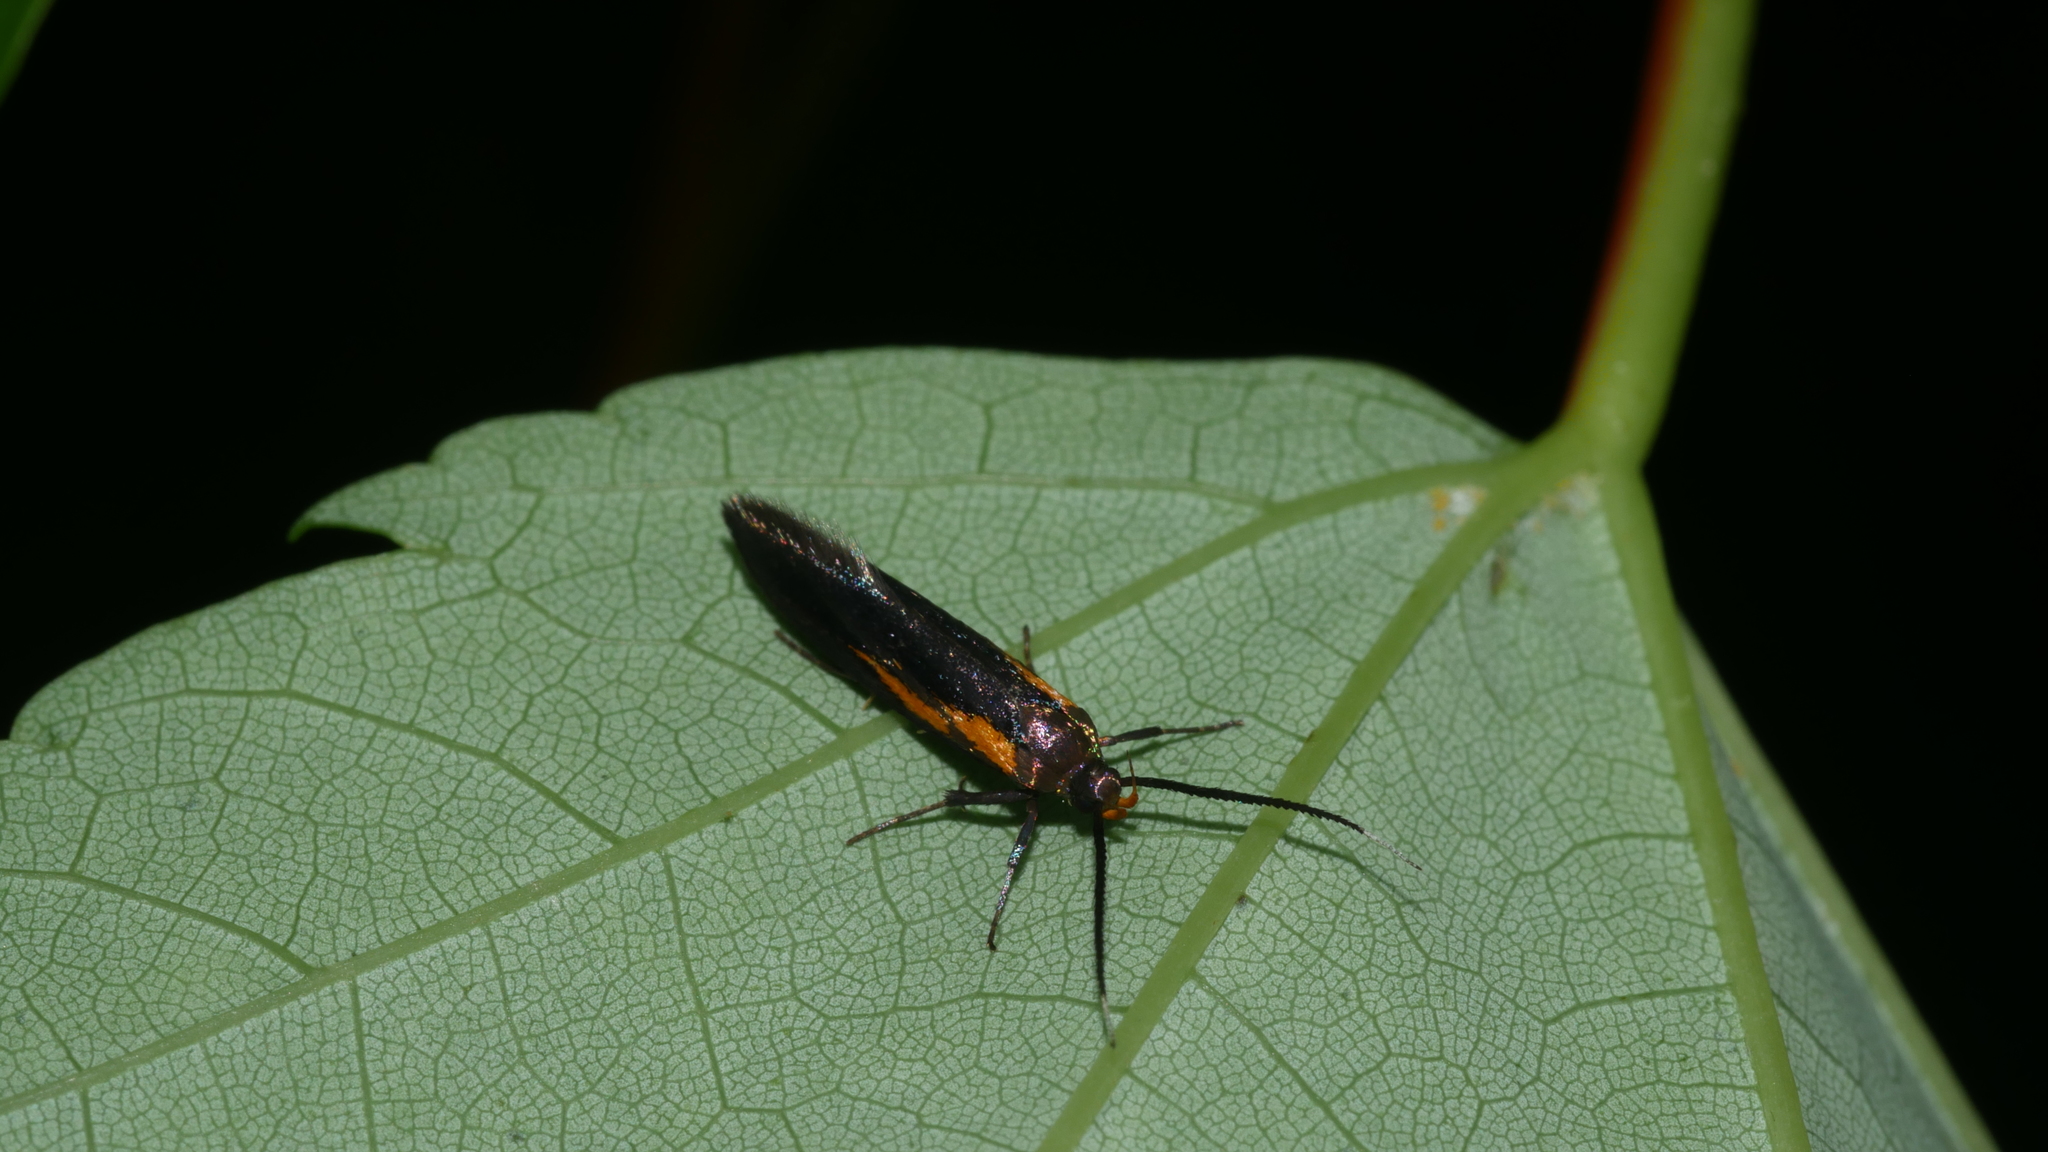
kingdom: Animalia
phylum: Arthropoda
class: Insecta
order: Lepidoptera
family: Oecophoridae
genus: Mathildana
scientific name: Mathildana newmanella
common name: Newman's mathildana moth
